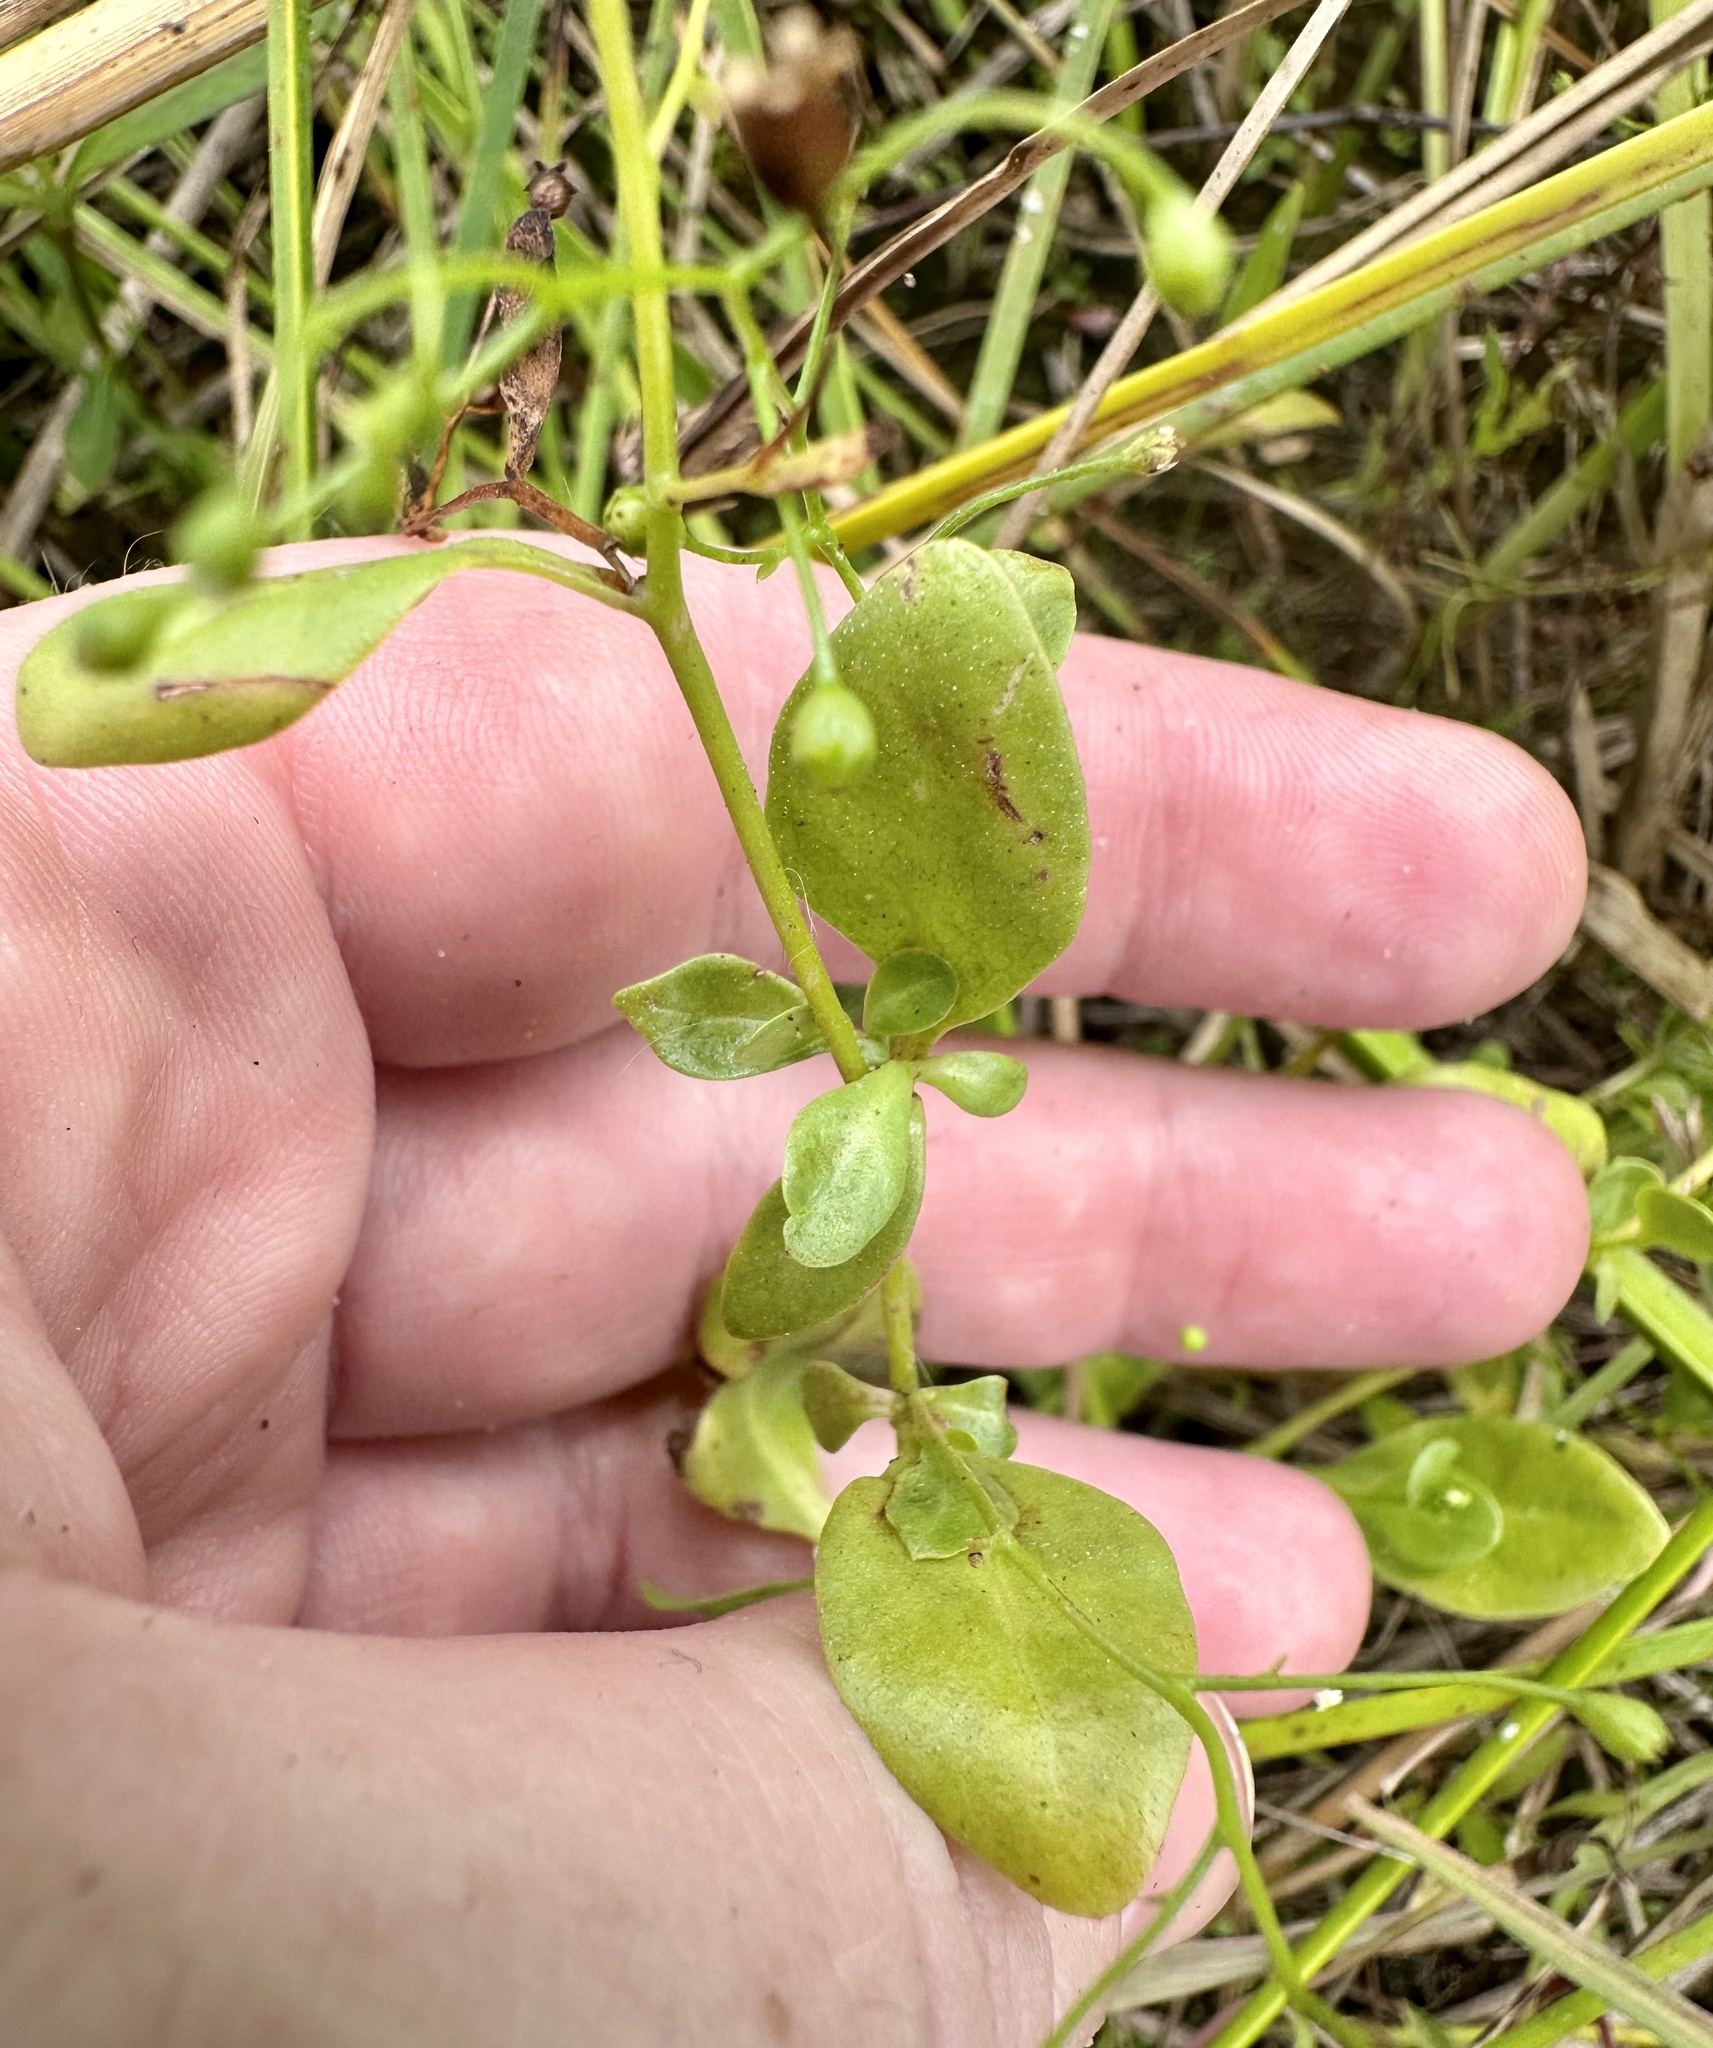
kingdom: Plantae
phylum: Tracheophyta
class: Magnoliopsida
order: Ericales
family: Primulaceae
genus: Samolus
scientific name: Samolus parviflorus
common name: False water pimpernel
